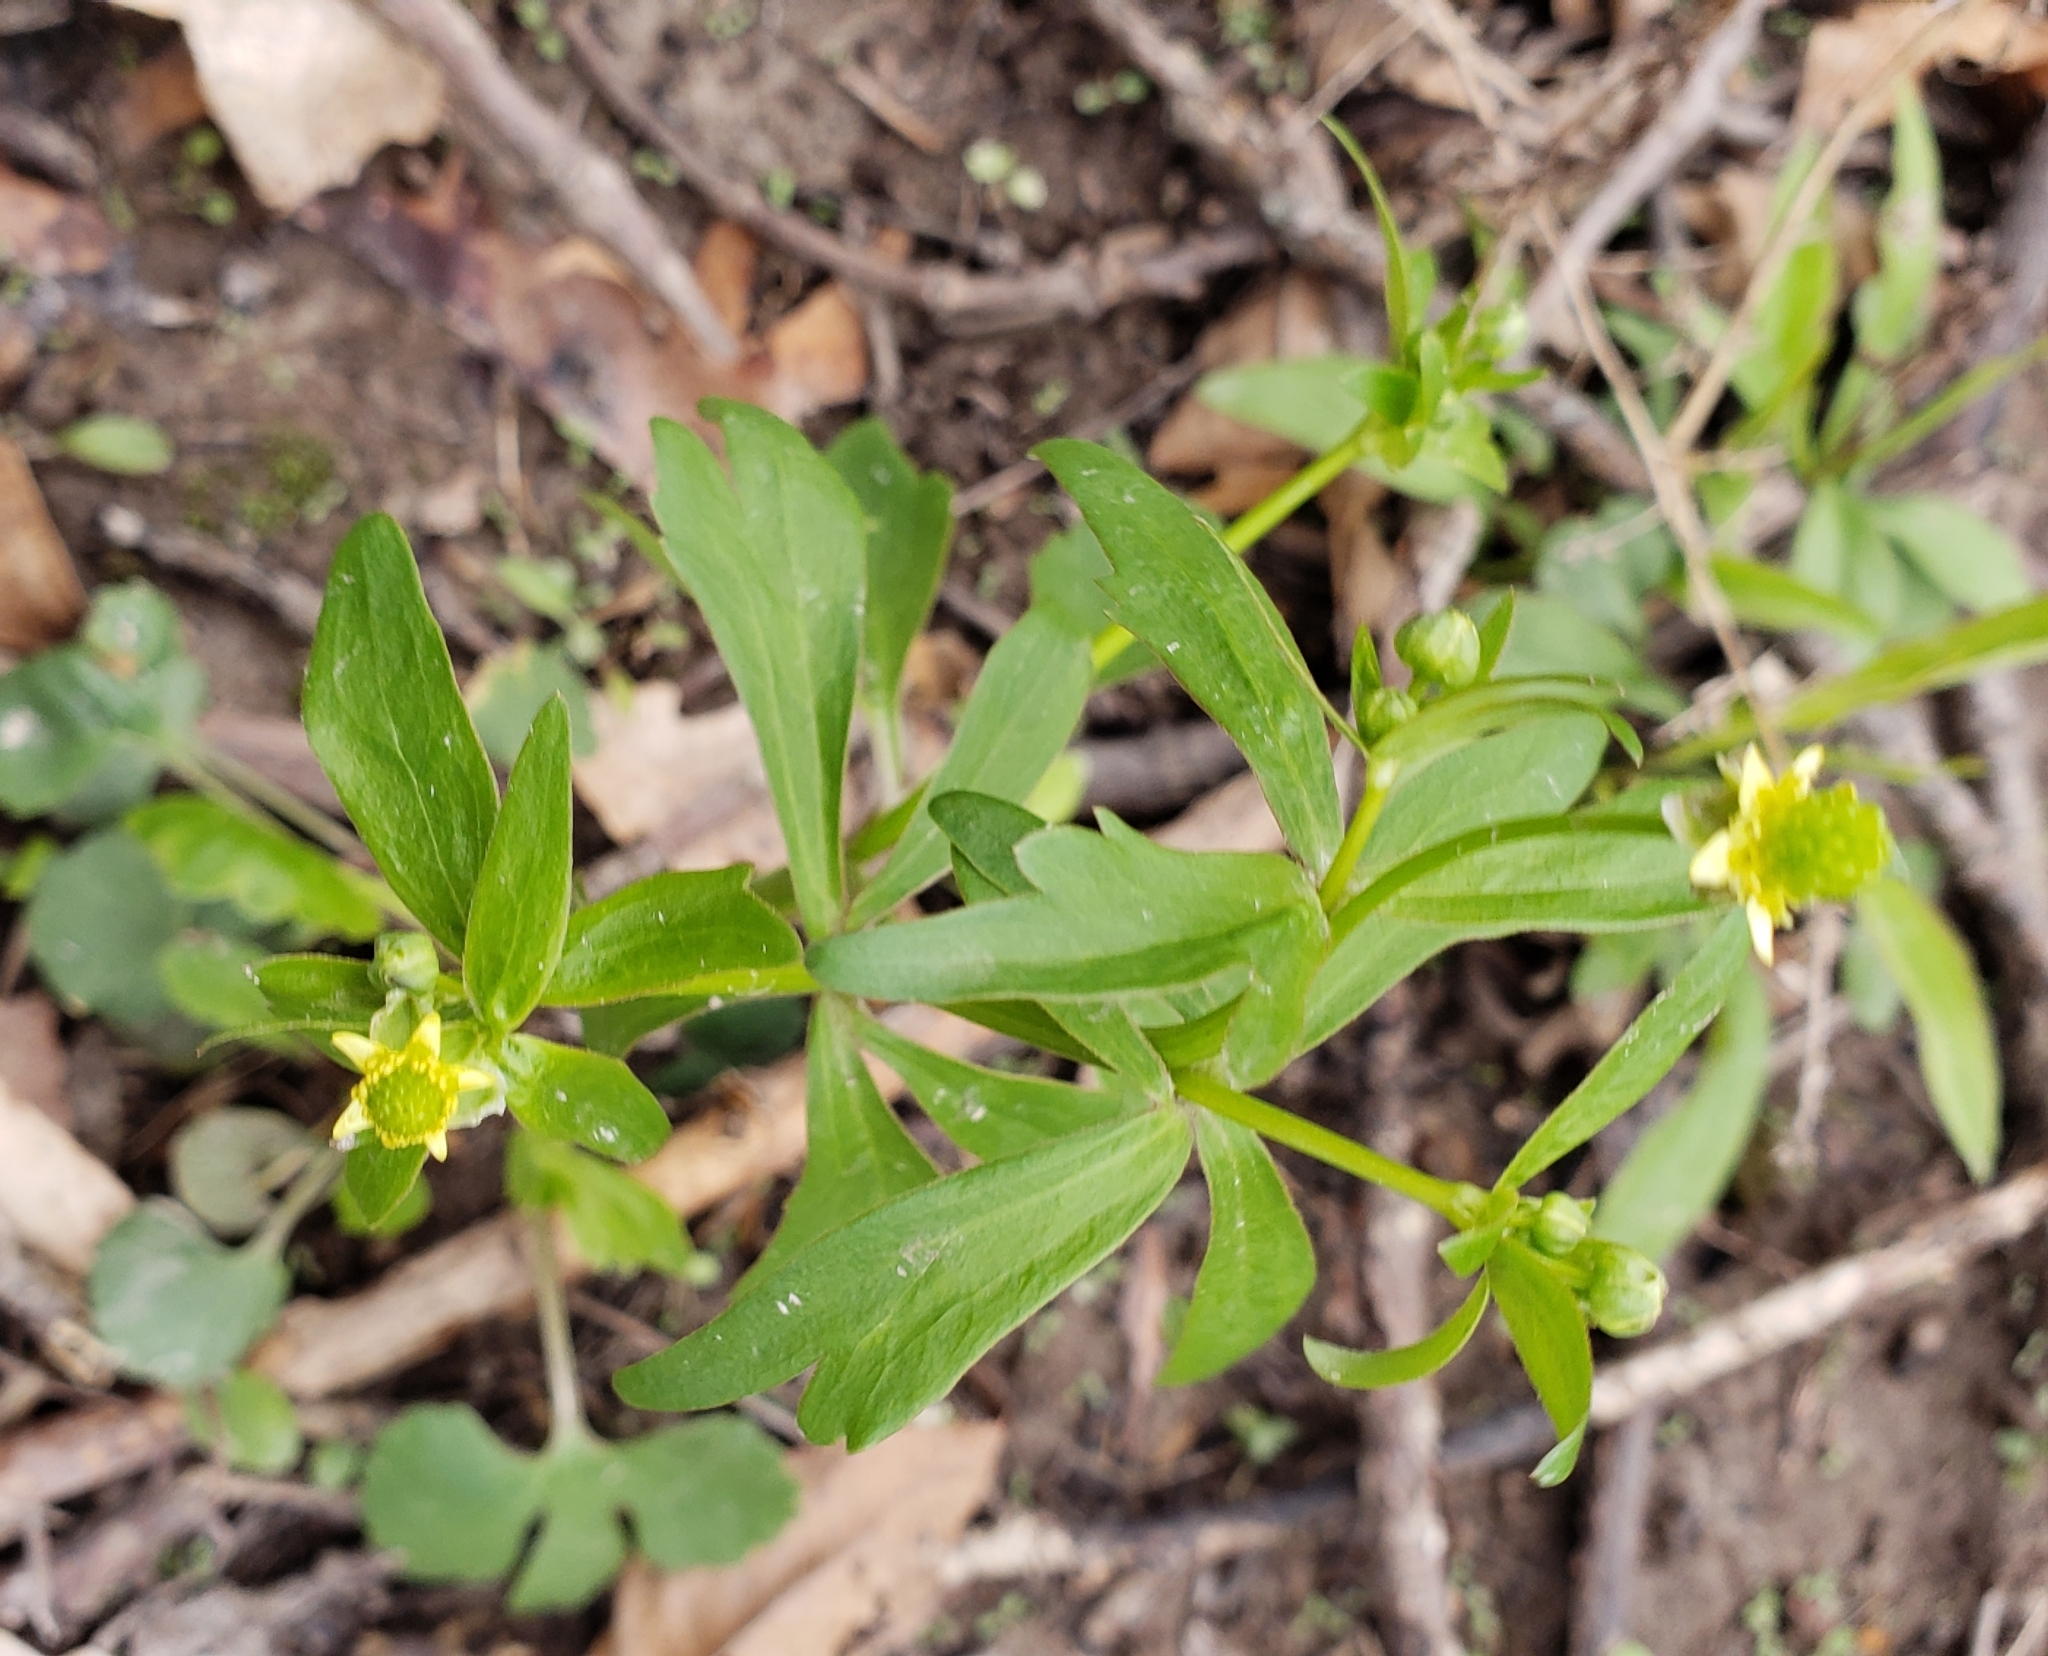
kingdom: Plantae
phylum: Tracheophyta
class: Magnoliopsida
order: Ranunculales
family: Ranunculaceae
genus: Ranunculus
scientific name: Ranunculus abortivus
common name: Early wood buttercup
